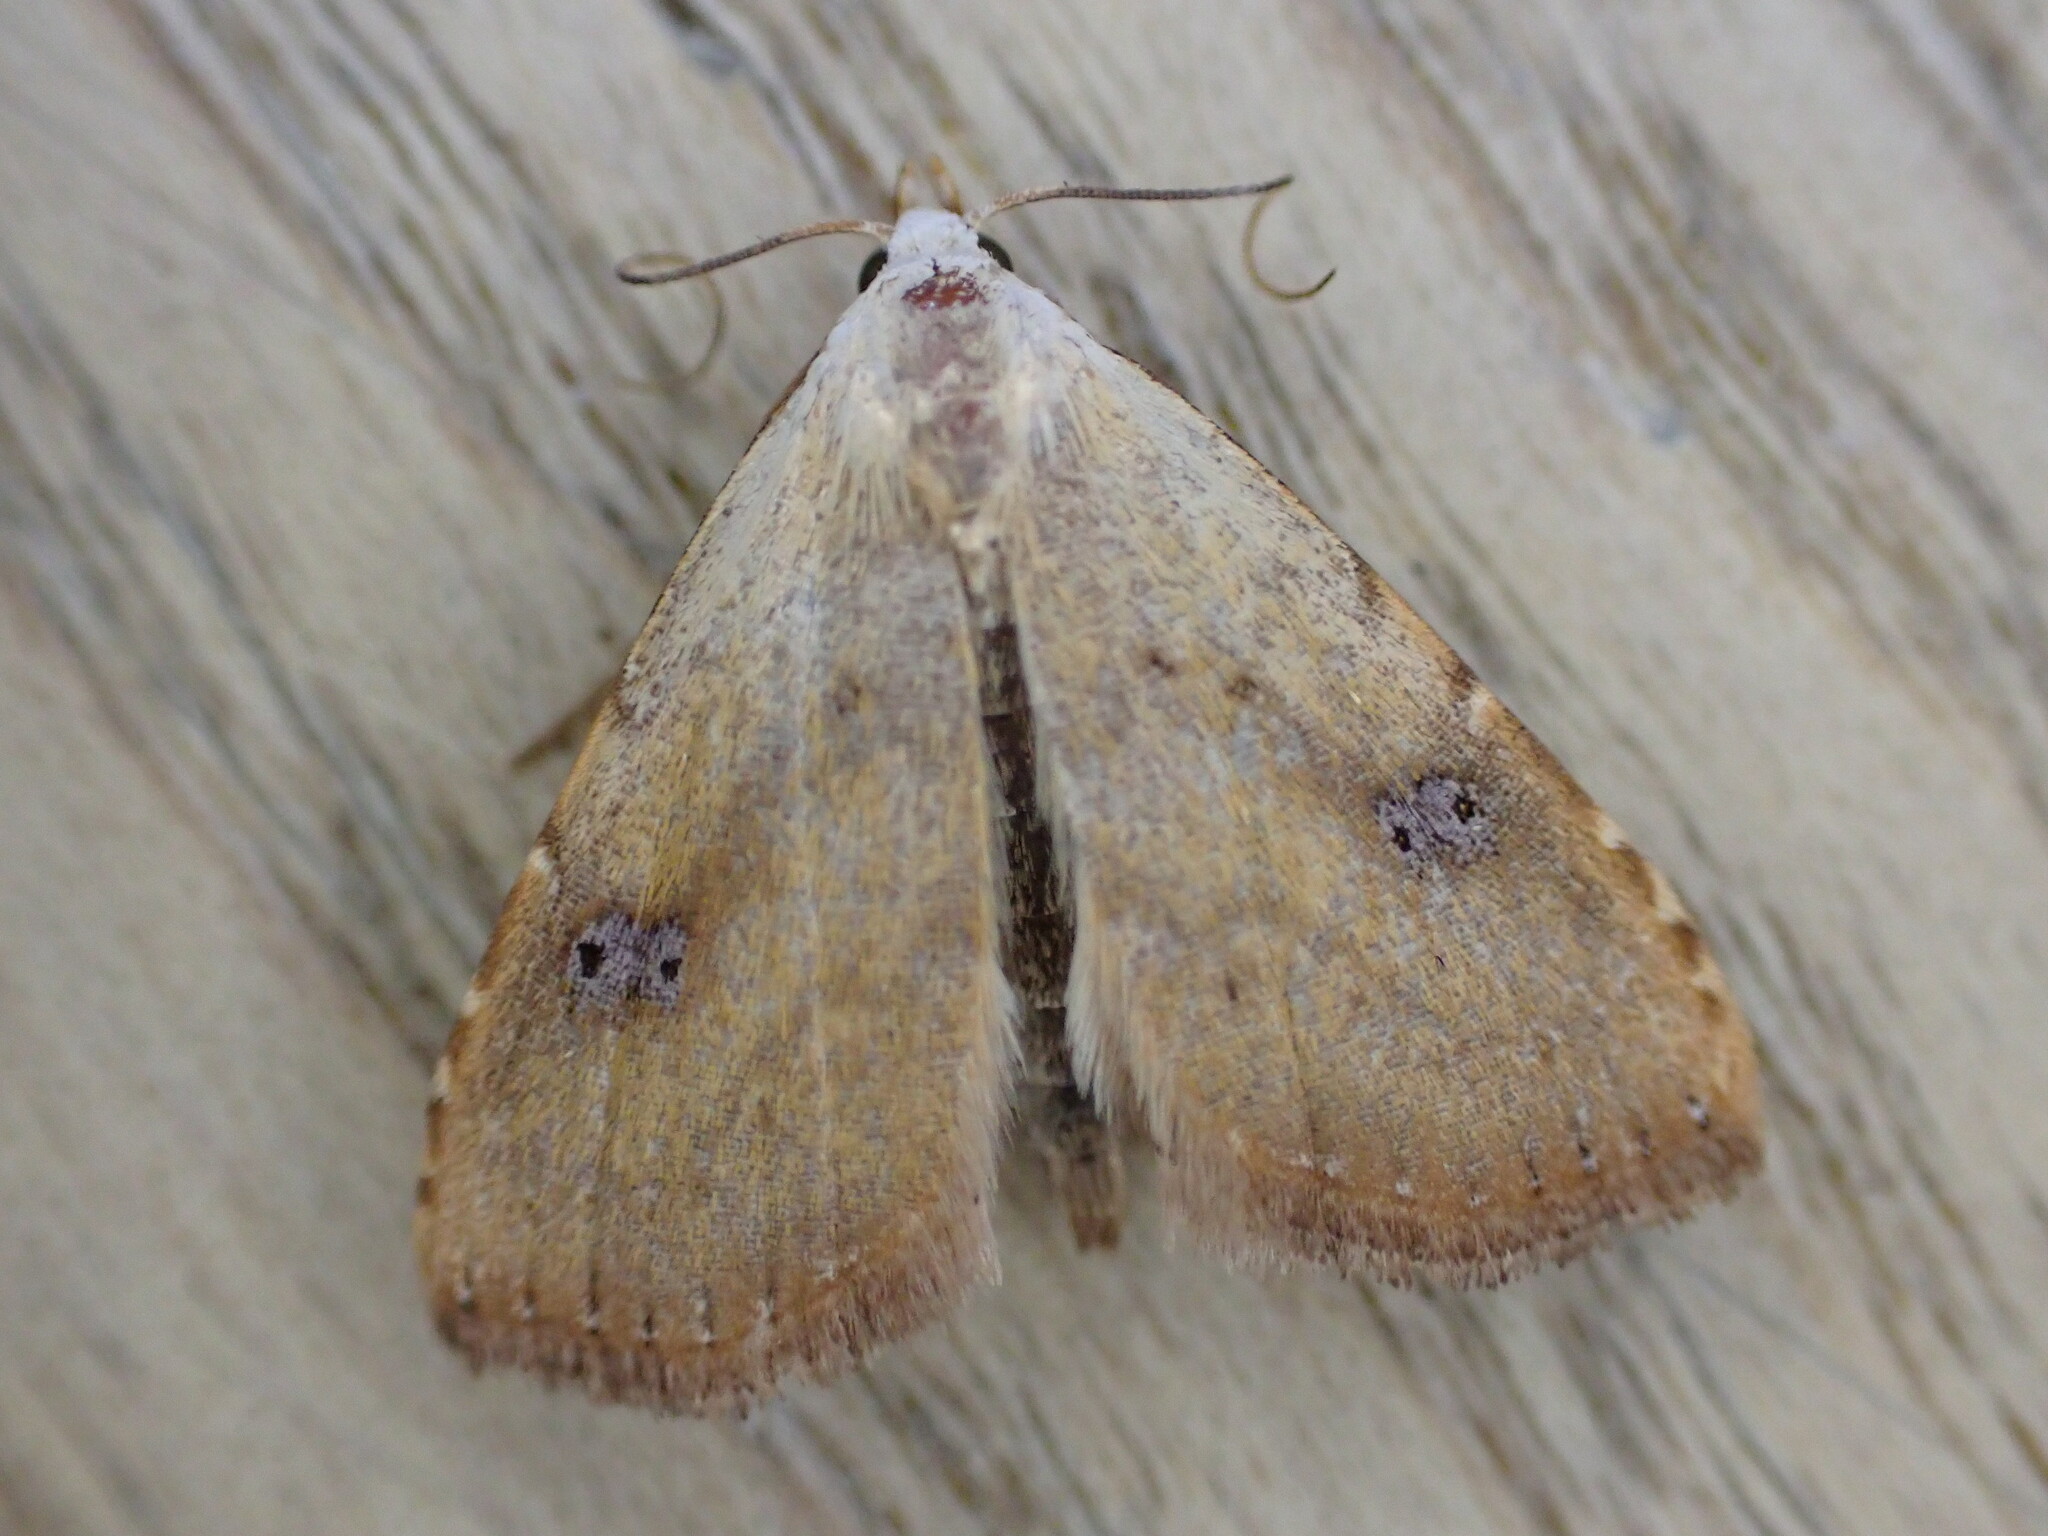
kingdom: Animalia
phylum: Arthropoda
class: Insecta
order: Lepidoptera
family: Erebidae
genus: Rivula
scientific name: Rivula sericealis
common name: Straw dot
